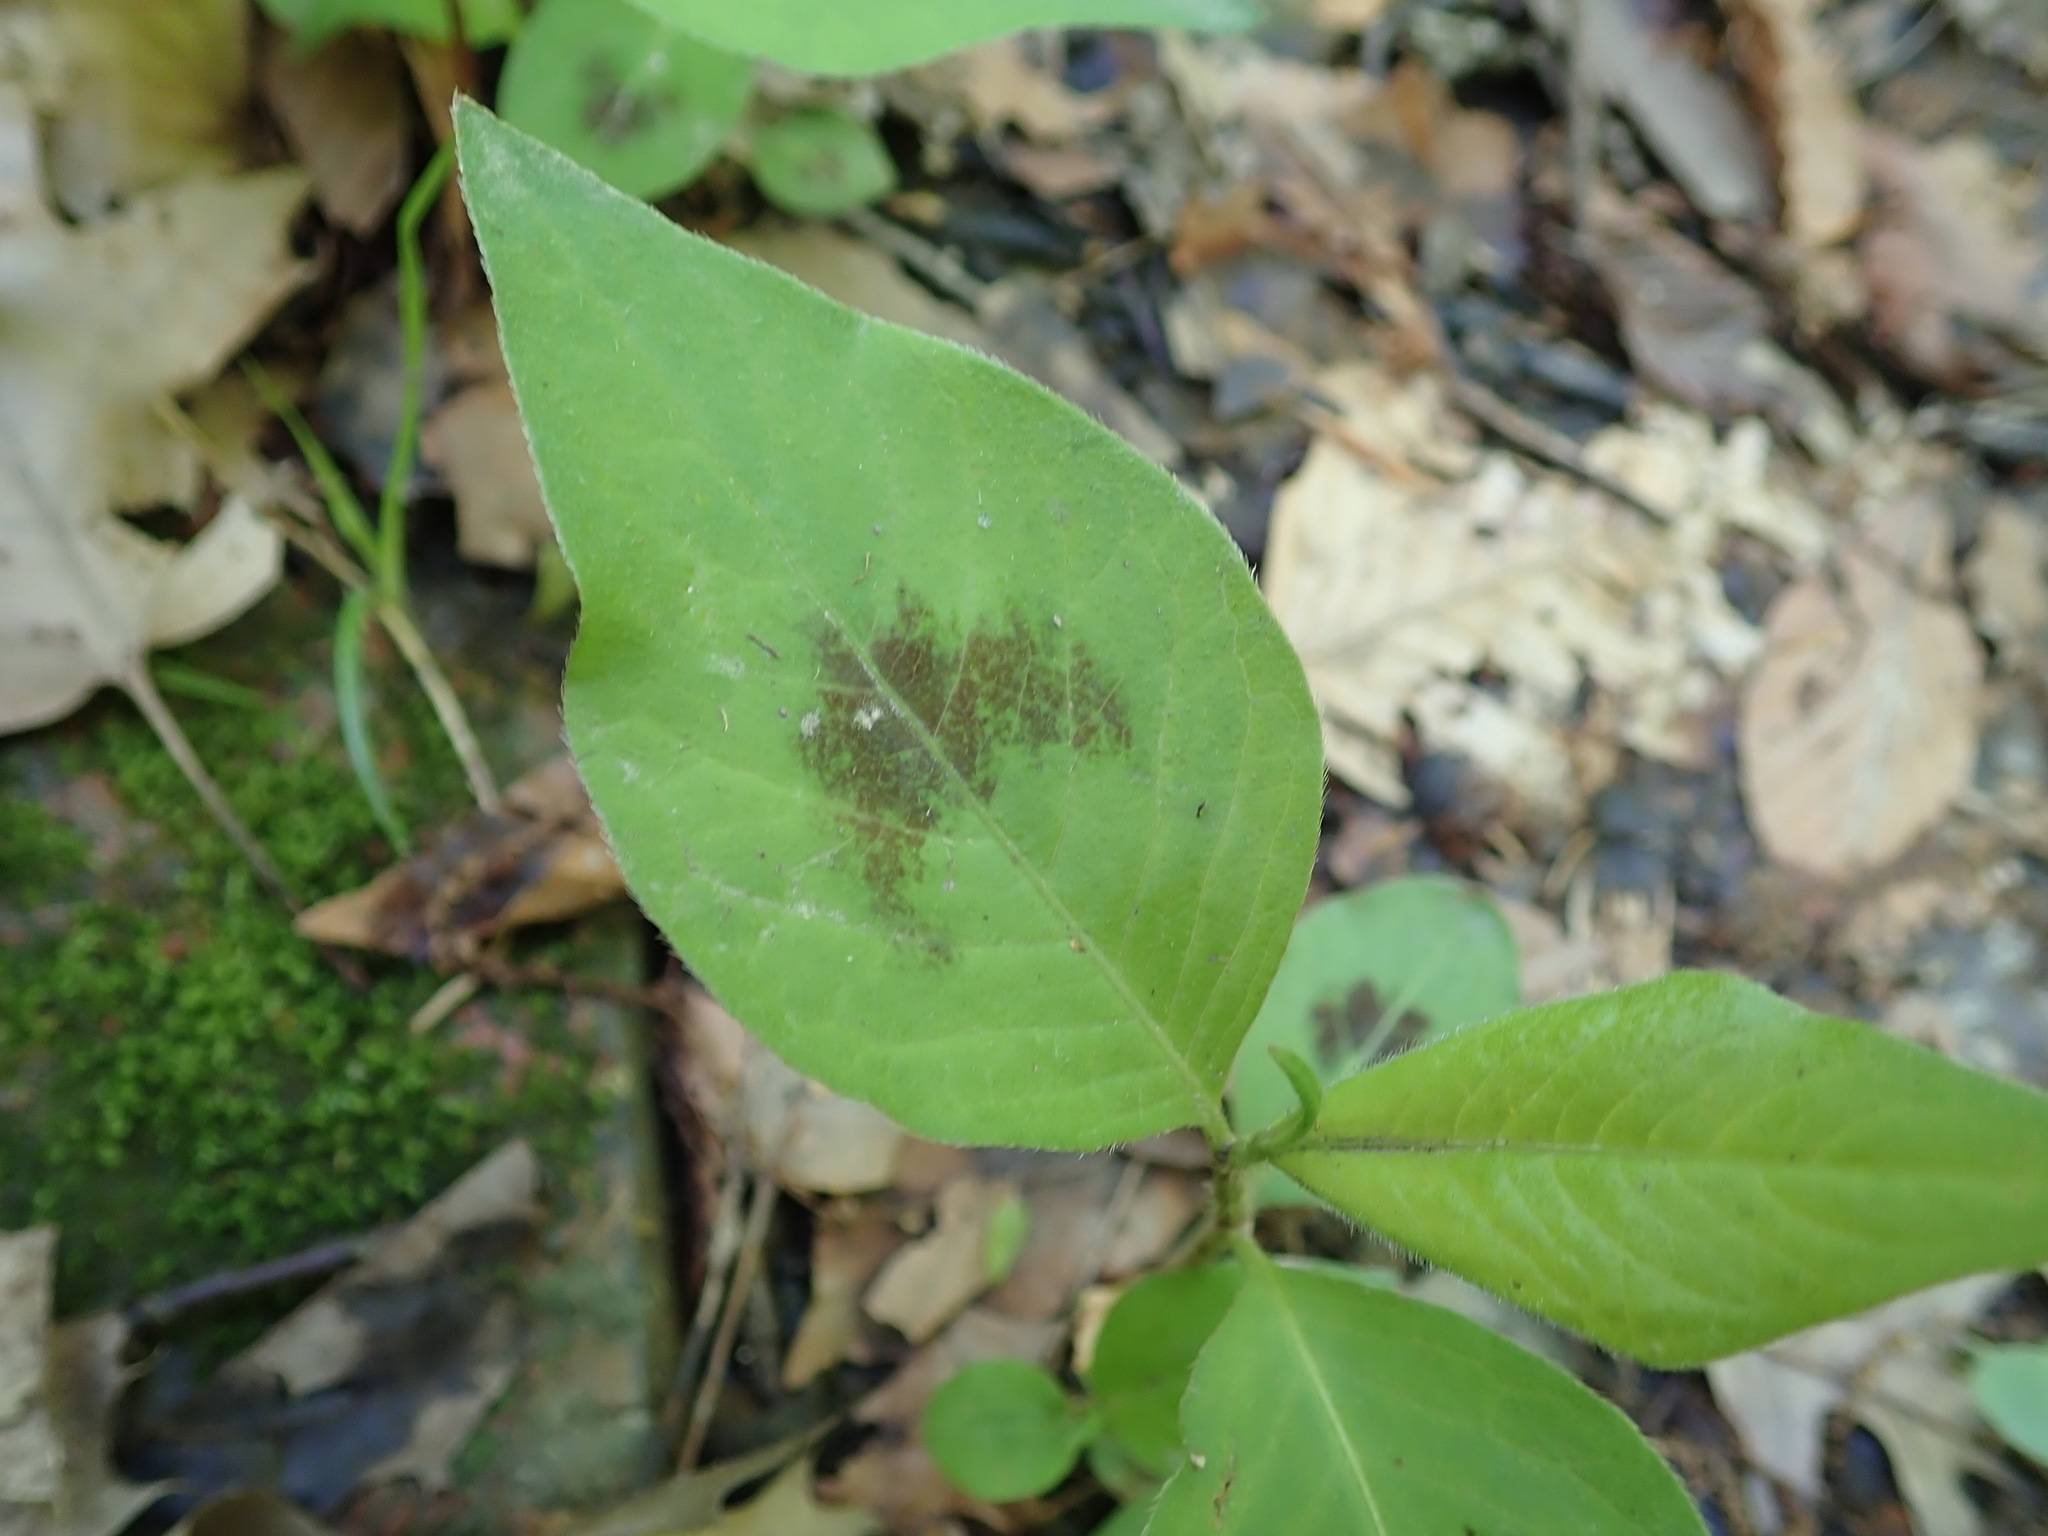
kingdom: Plantae
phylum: Tracheophyta
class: Magnoliopsida
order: Caryophyllales
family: Polygonaceae
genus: Persicaria
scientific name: Persicaria virginiana
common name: Jumpseed
